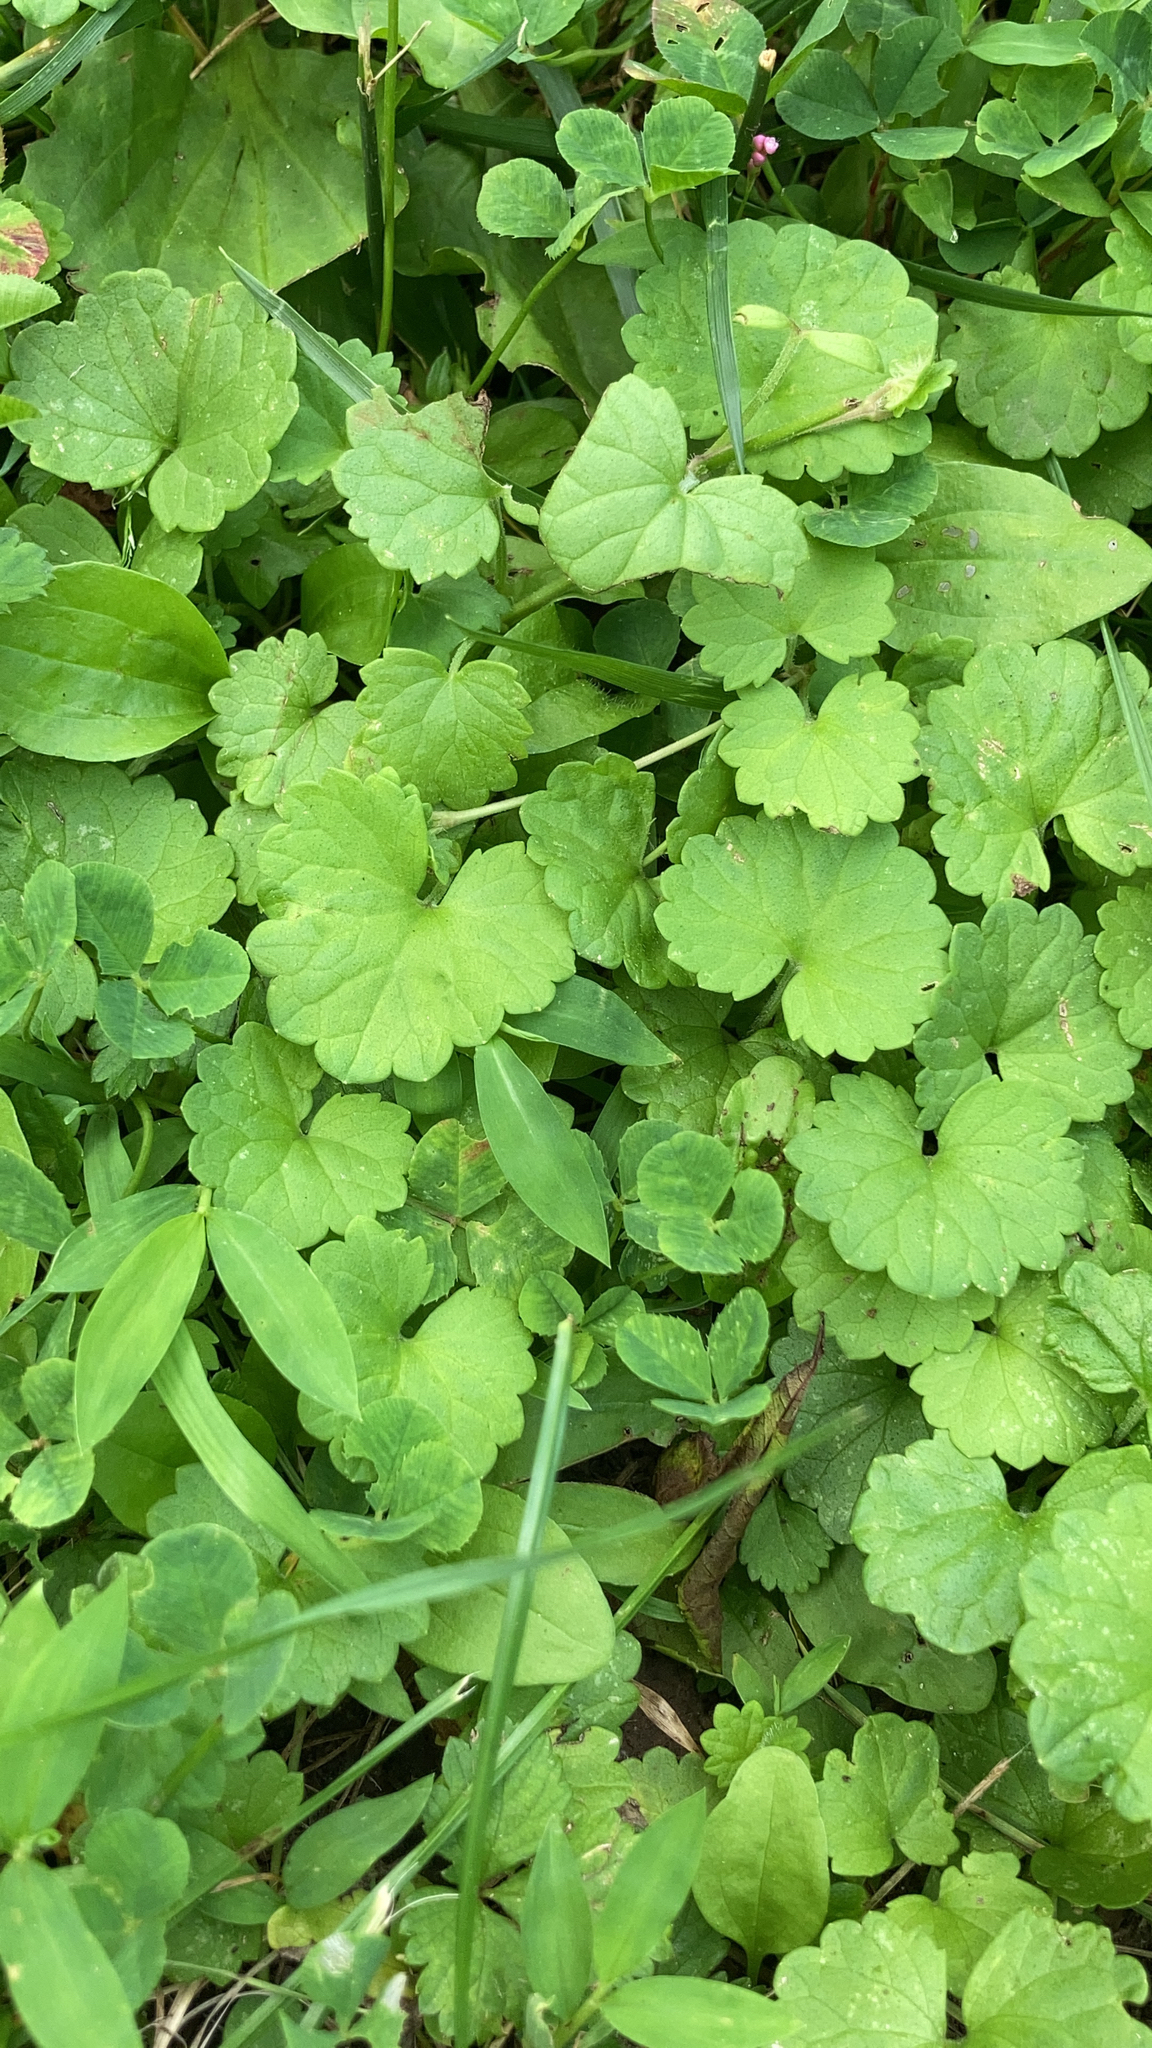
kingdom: Plantae
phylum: Tracheophyta
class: Magnoliopsida
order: Lamiales
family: Lamiaceae
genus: Glechoma
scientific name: Glechoma hederacea
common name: Ground ivy
